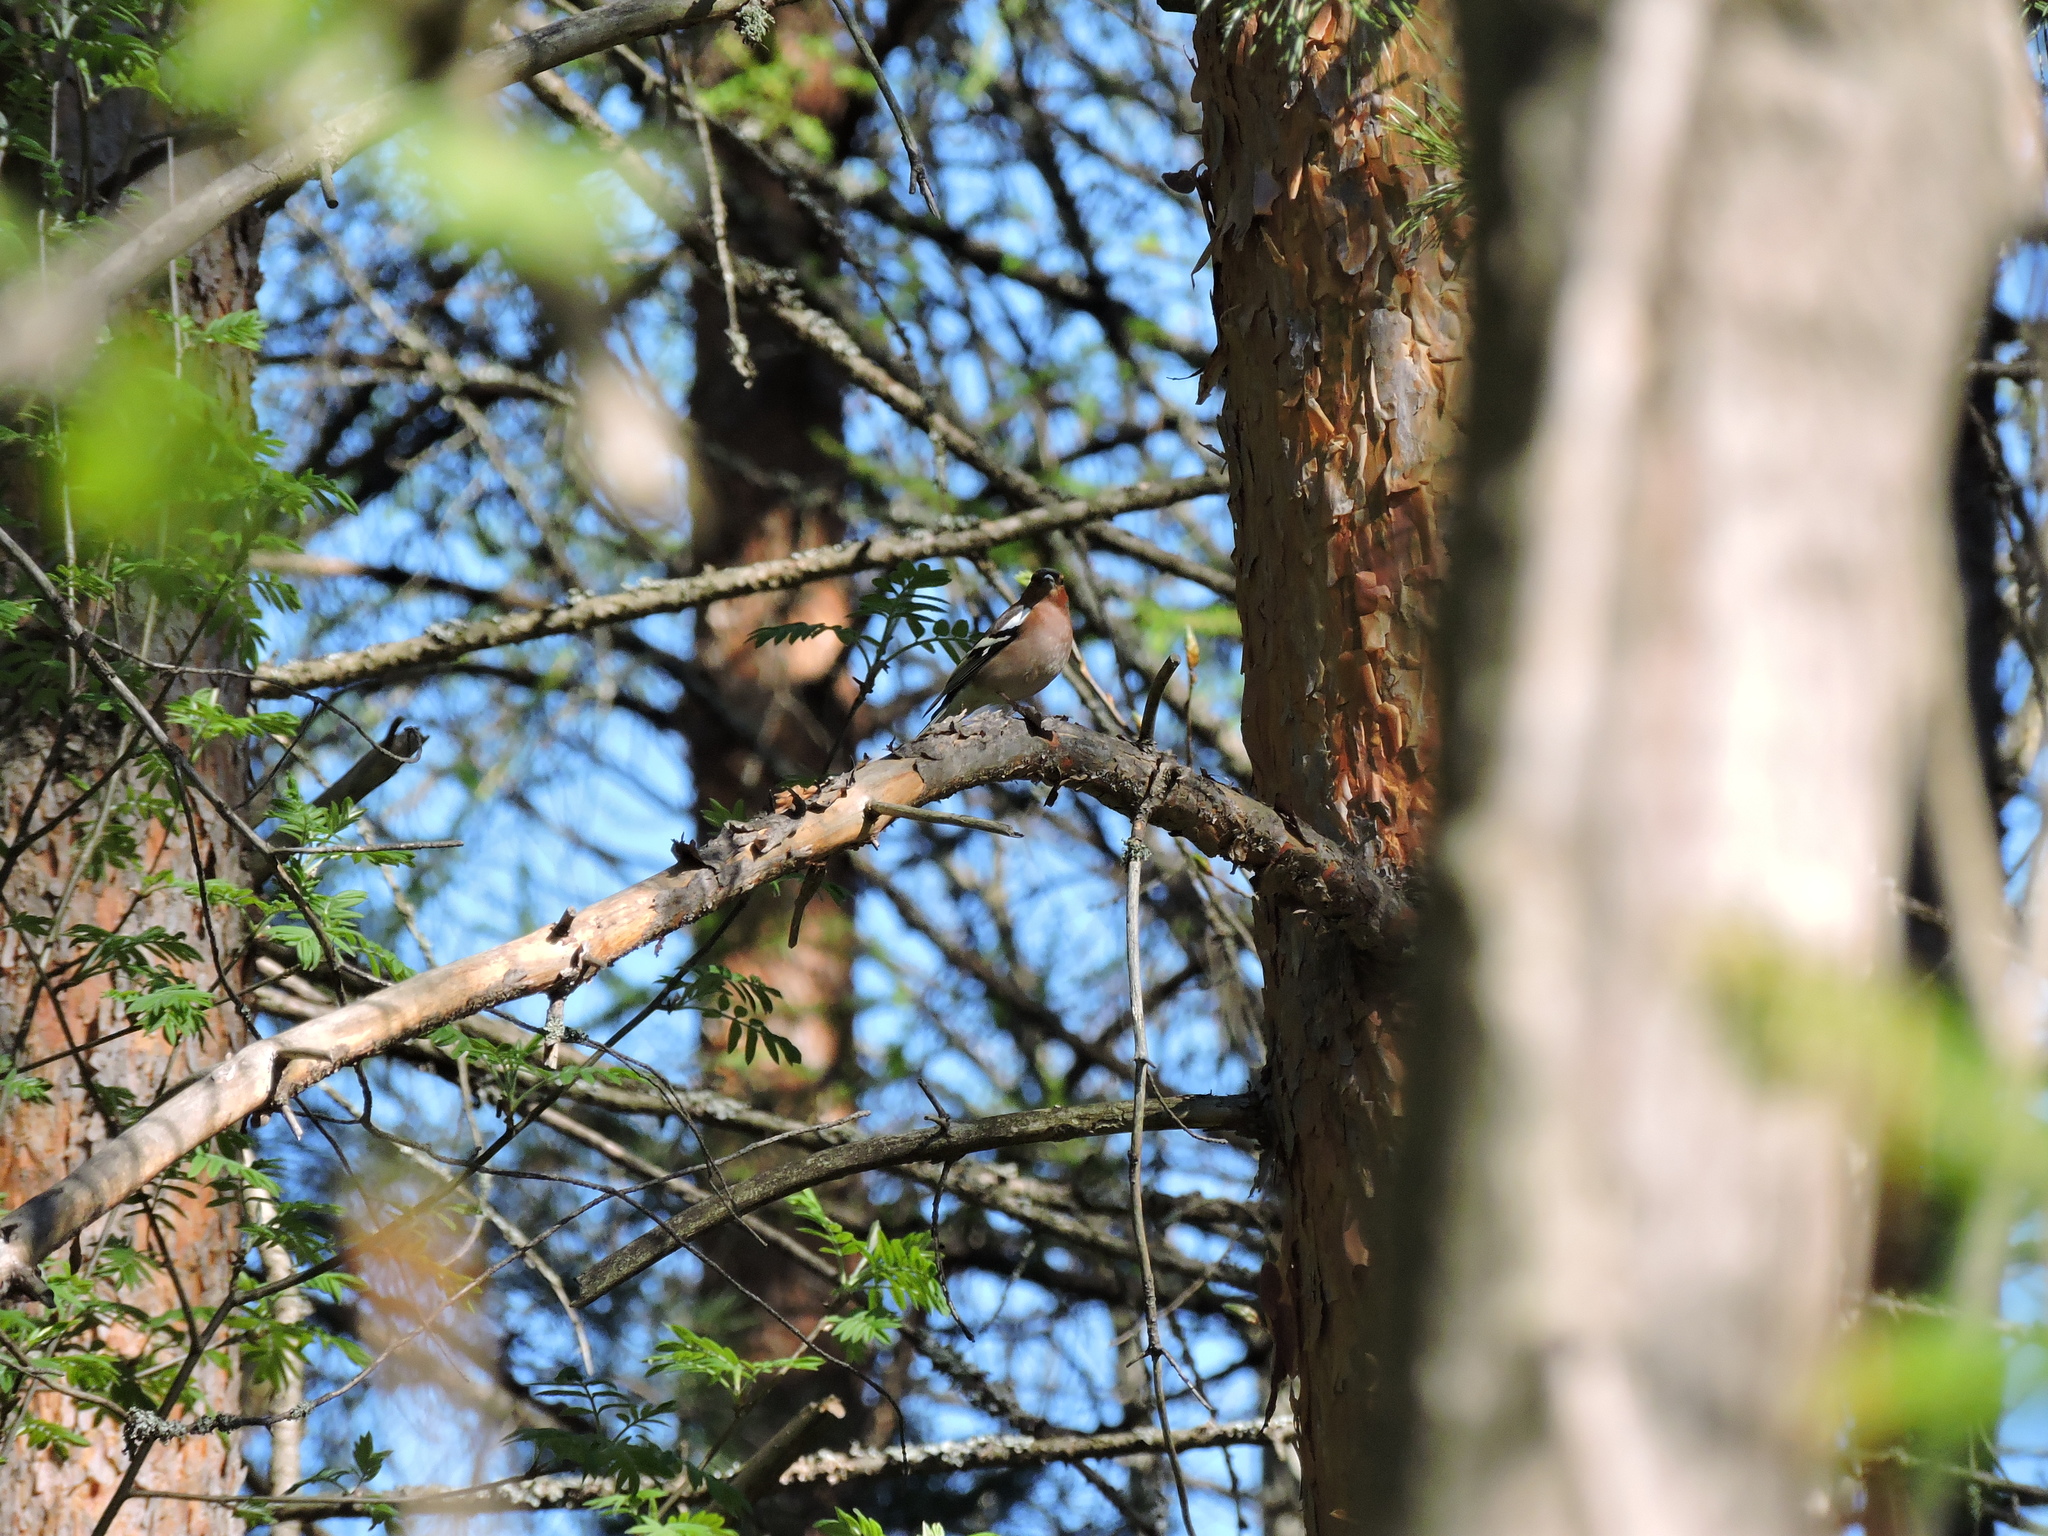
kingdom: Animalia
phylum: Chordata
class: Aves
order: Passeriformes
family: Fringillidae
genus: Fringilla
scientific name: Fringilla coelebs
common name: Common chaffinch
